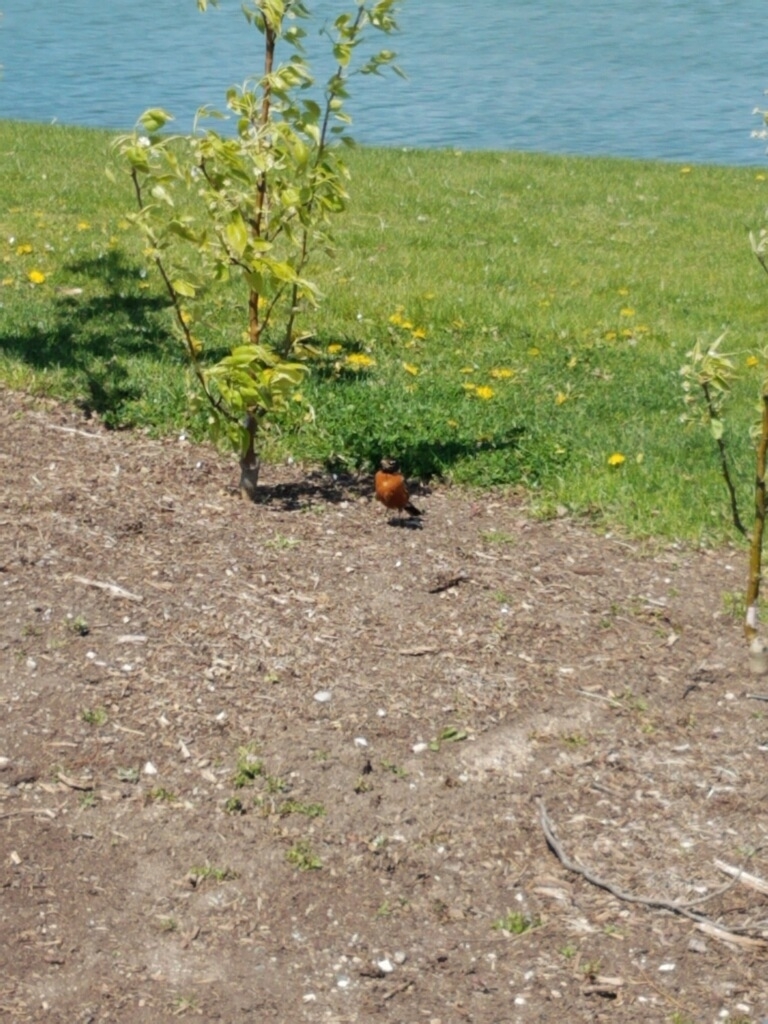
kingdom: Animalia
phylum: Chordata
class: Aves
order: Passeriformes
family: Turdidae
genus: Turdus
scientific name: Turdus migratorius
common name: American robin
